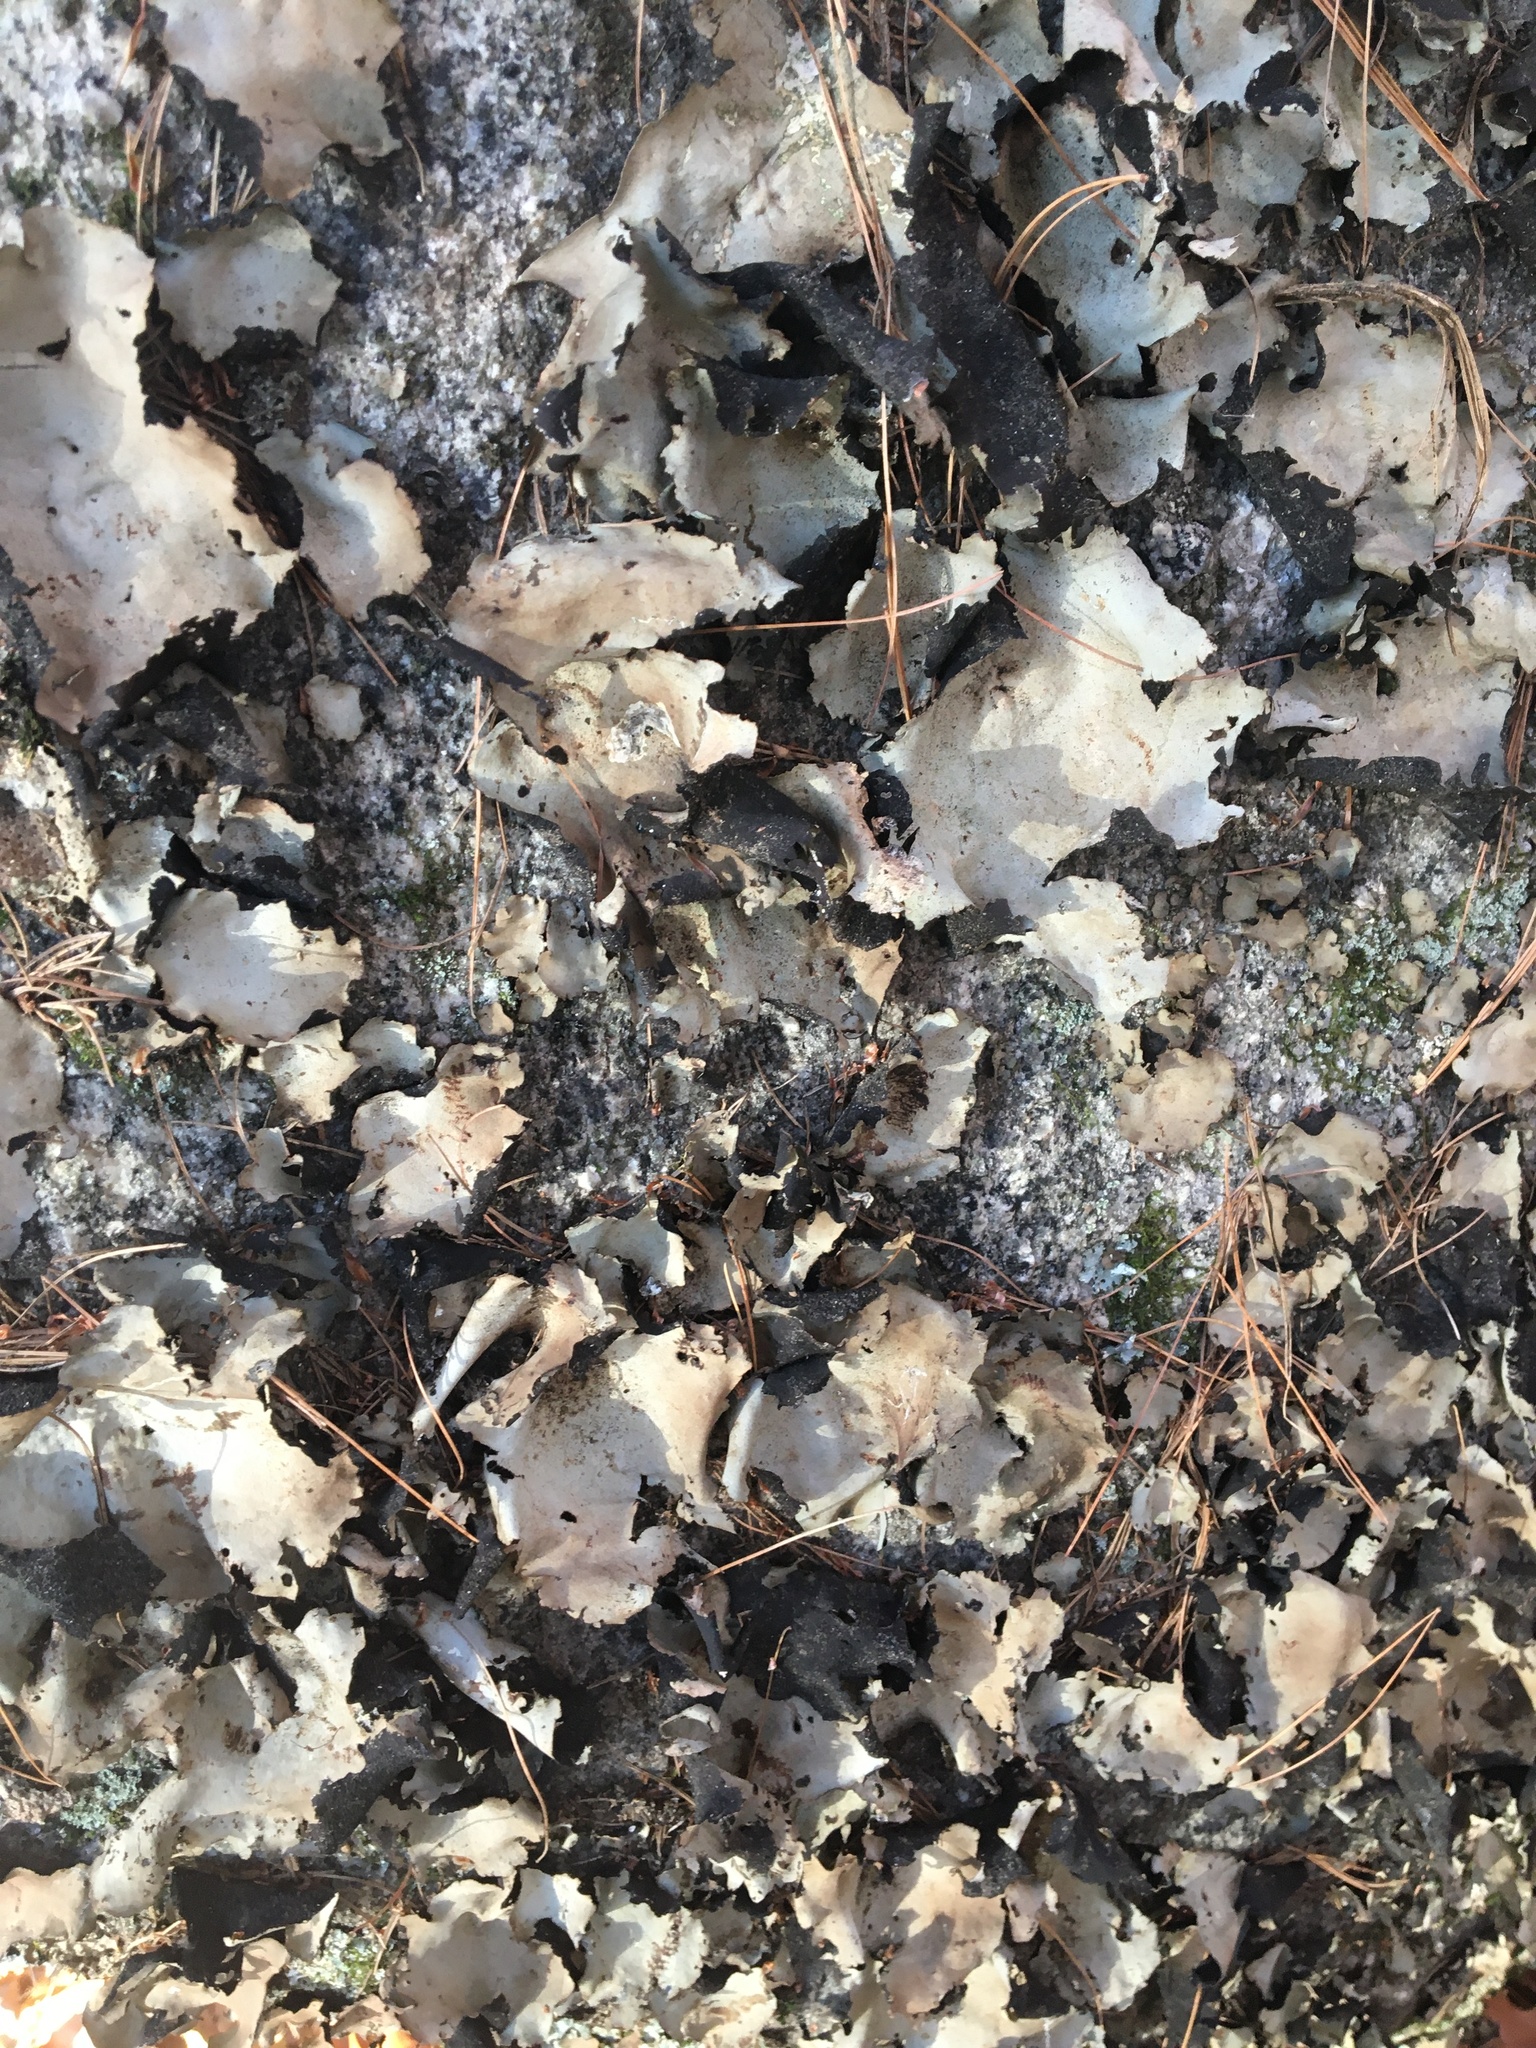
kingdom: Fungi
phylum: Ascomycota
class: Lecanoromycetes
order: Umbilicariales
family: Umbilicariaceae
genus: Umbilicaria
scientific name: Umbilicaria americana
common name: Frosted rock tripe
